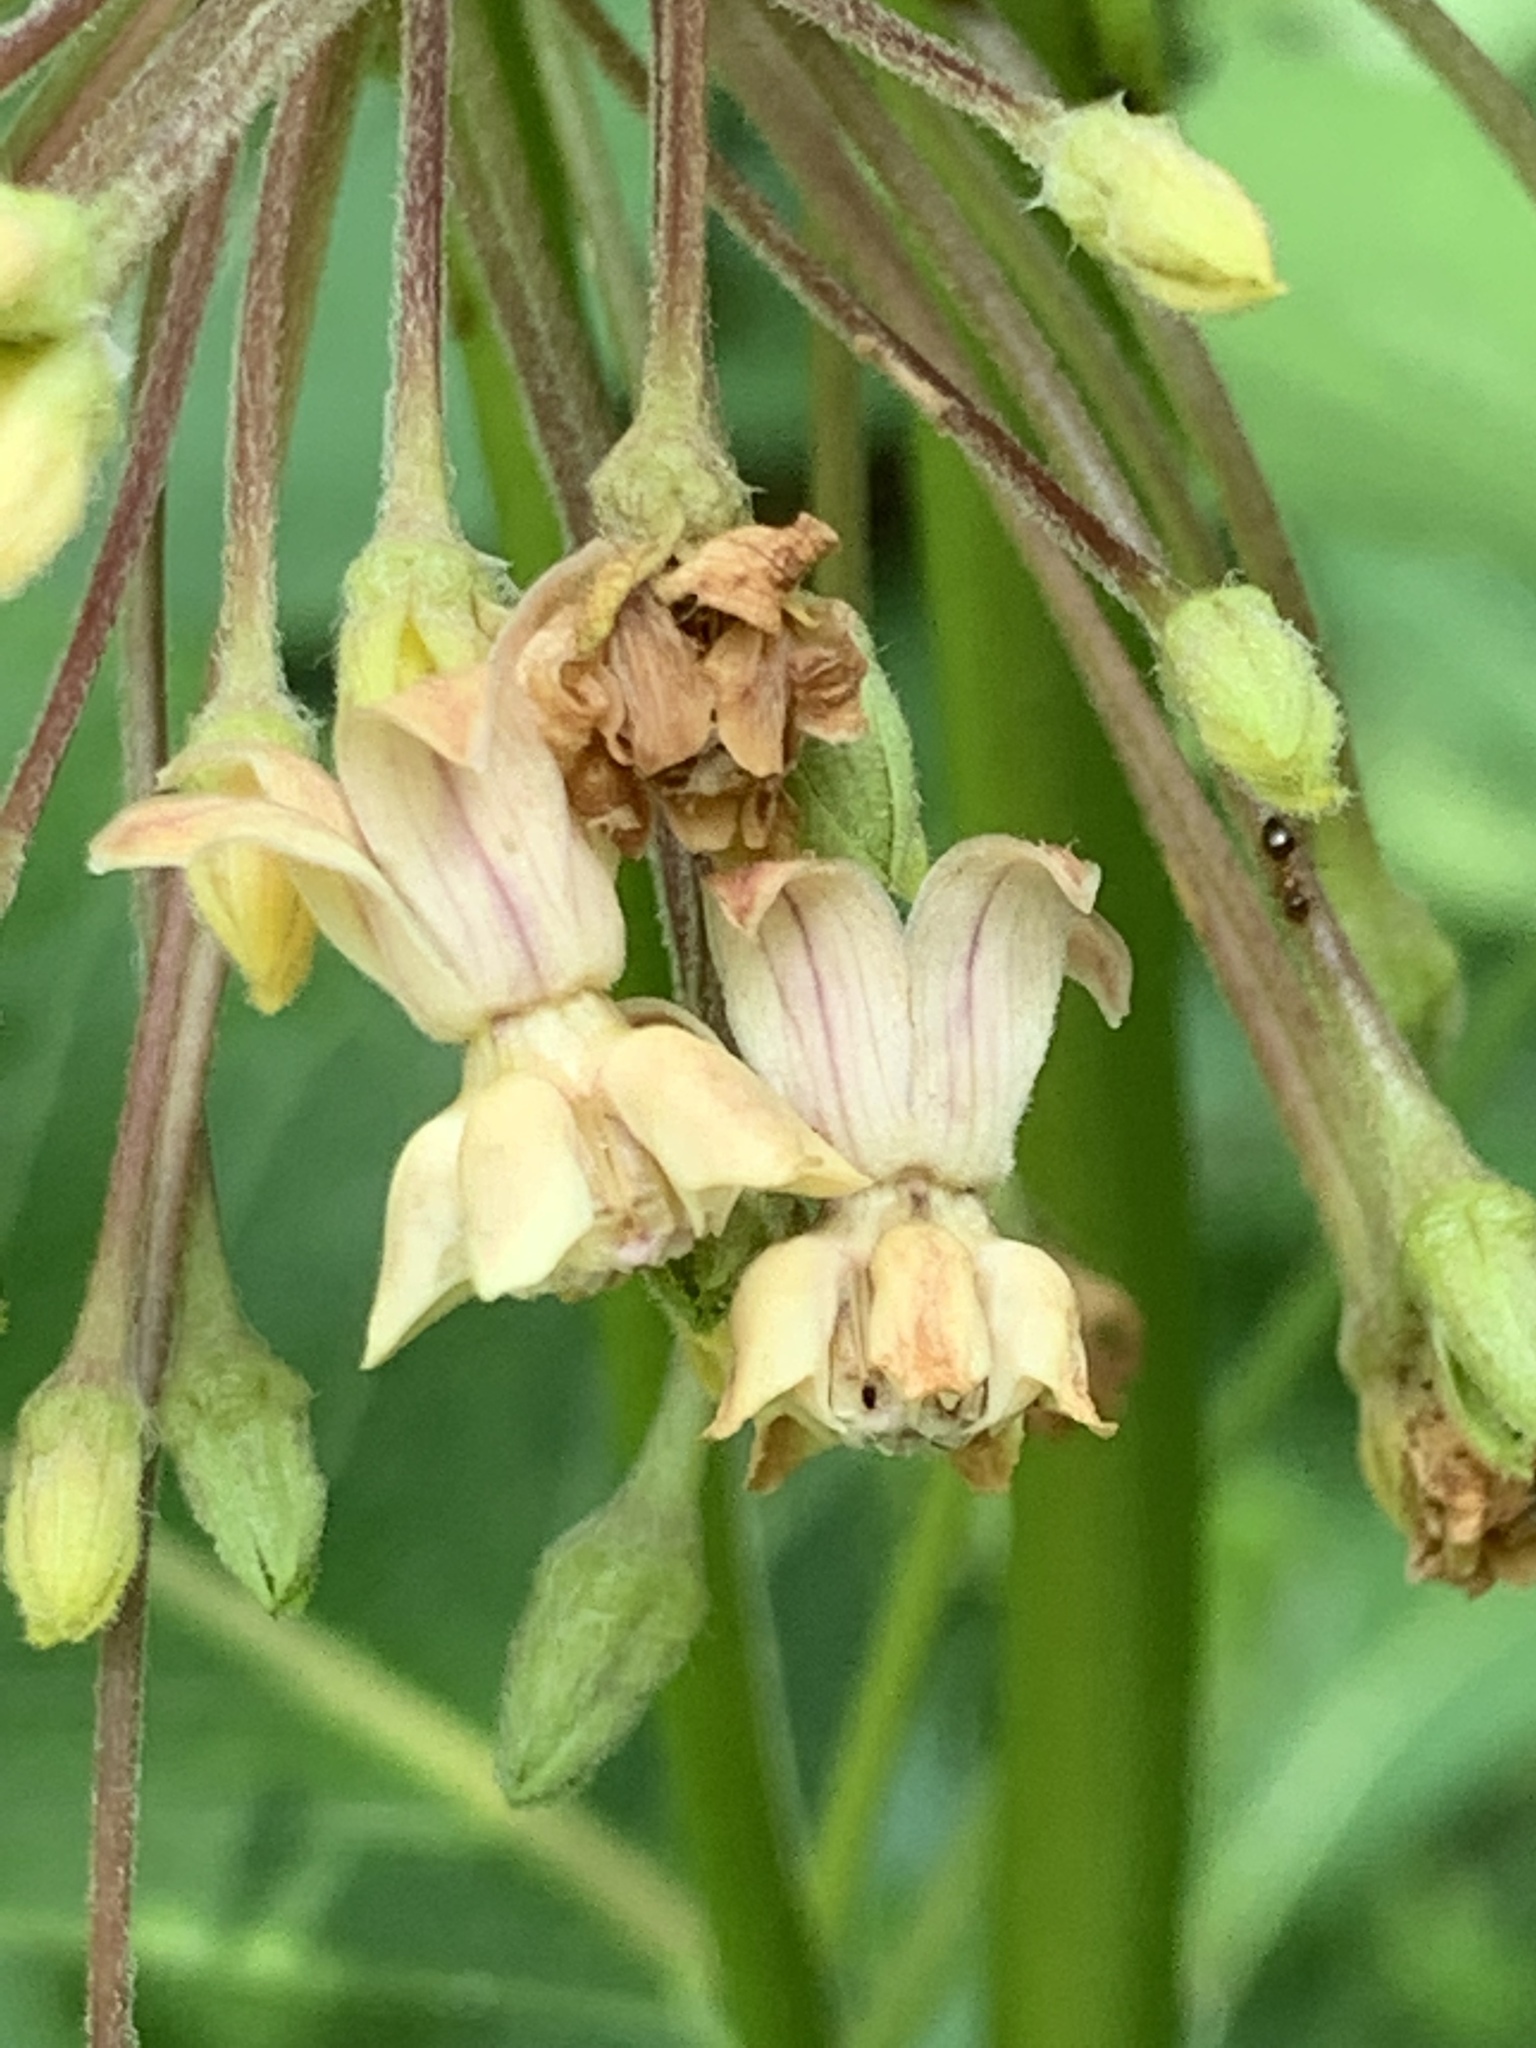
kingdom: Plantae
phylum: Tracheophyta
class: Magnoliopsida
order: Gentianales
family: Apocynaceae
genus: Asclepias
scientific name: Asclepias syriaca
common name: Common milkweed
